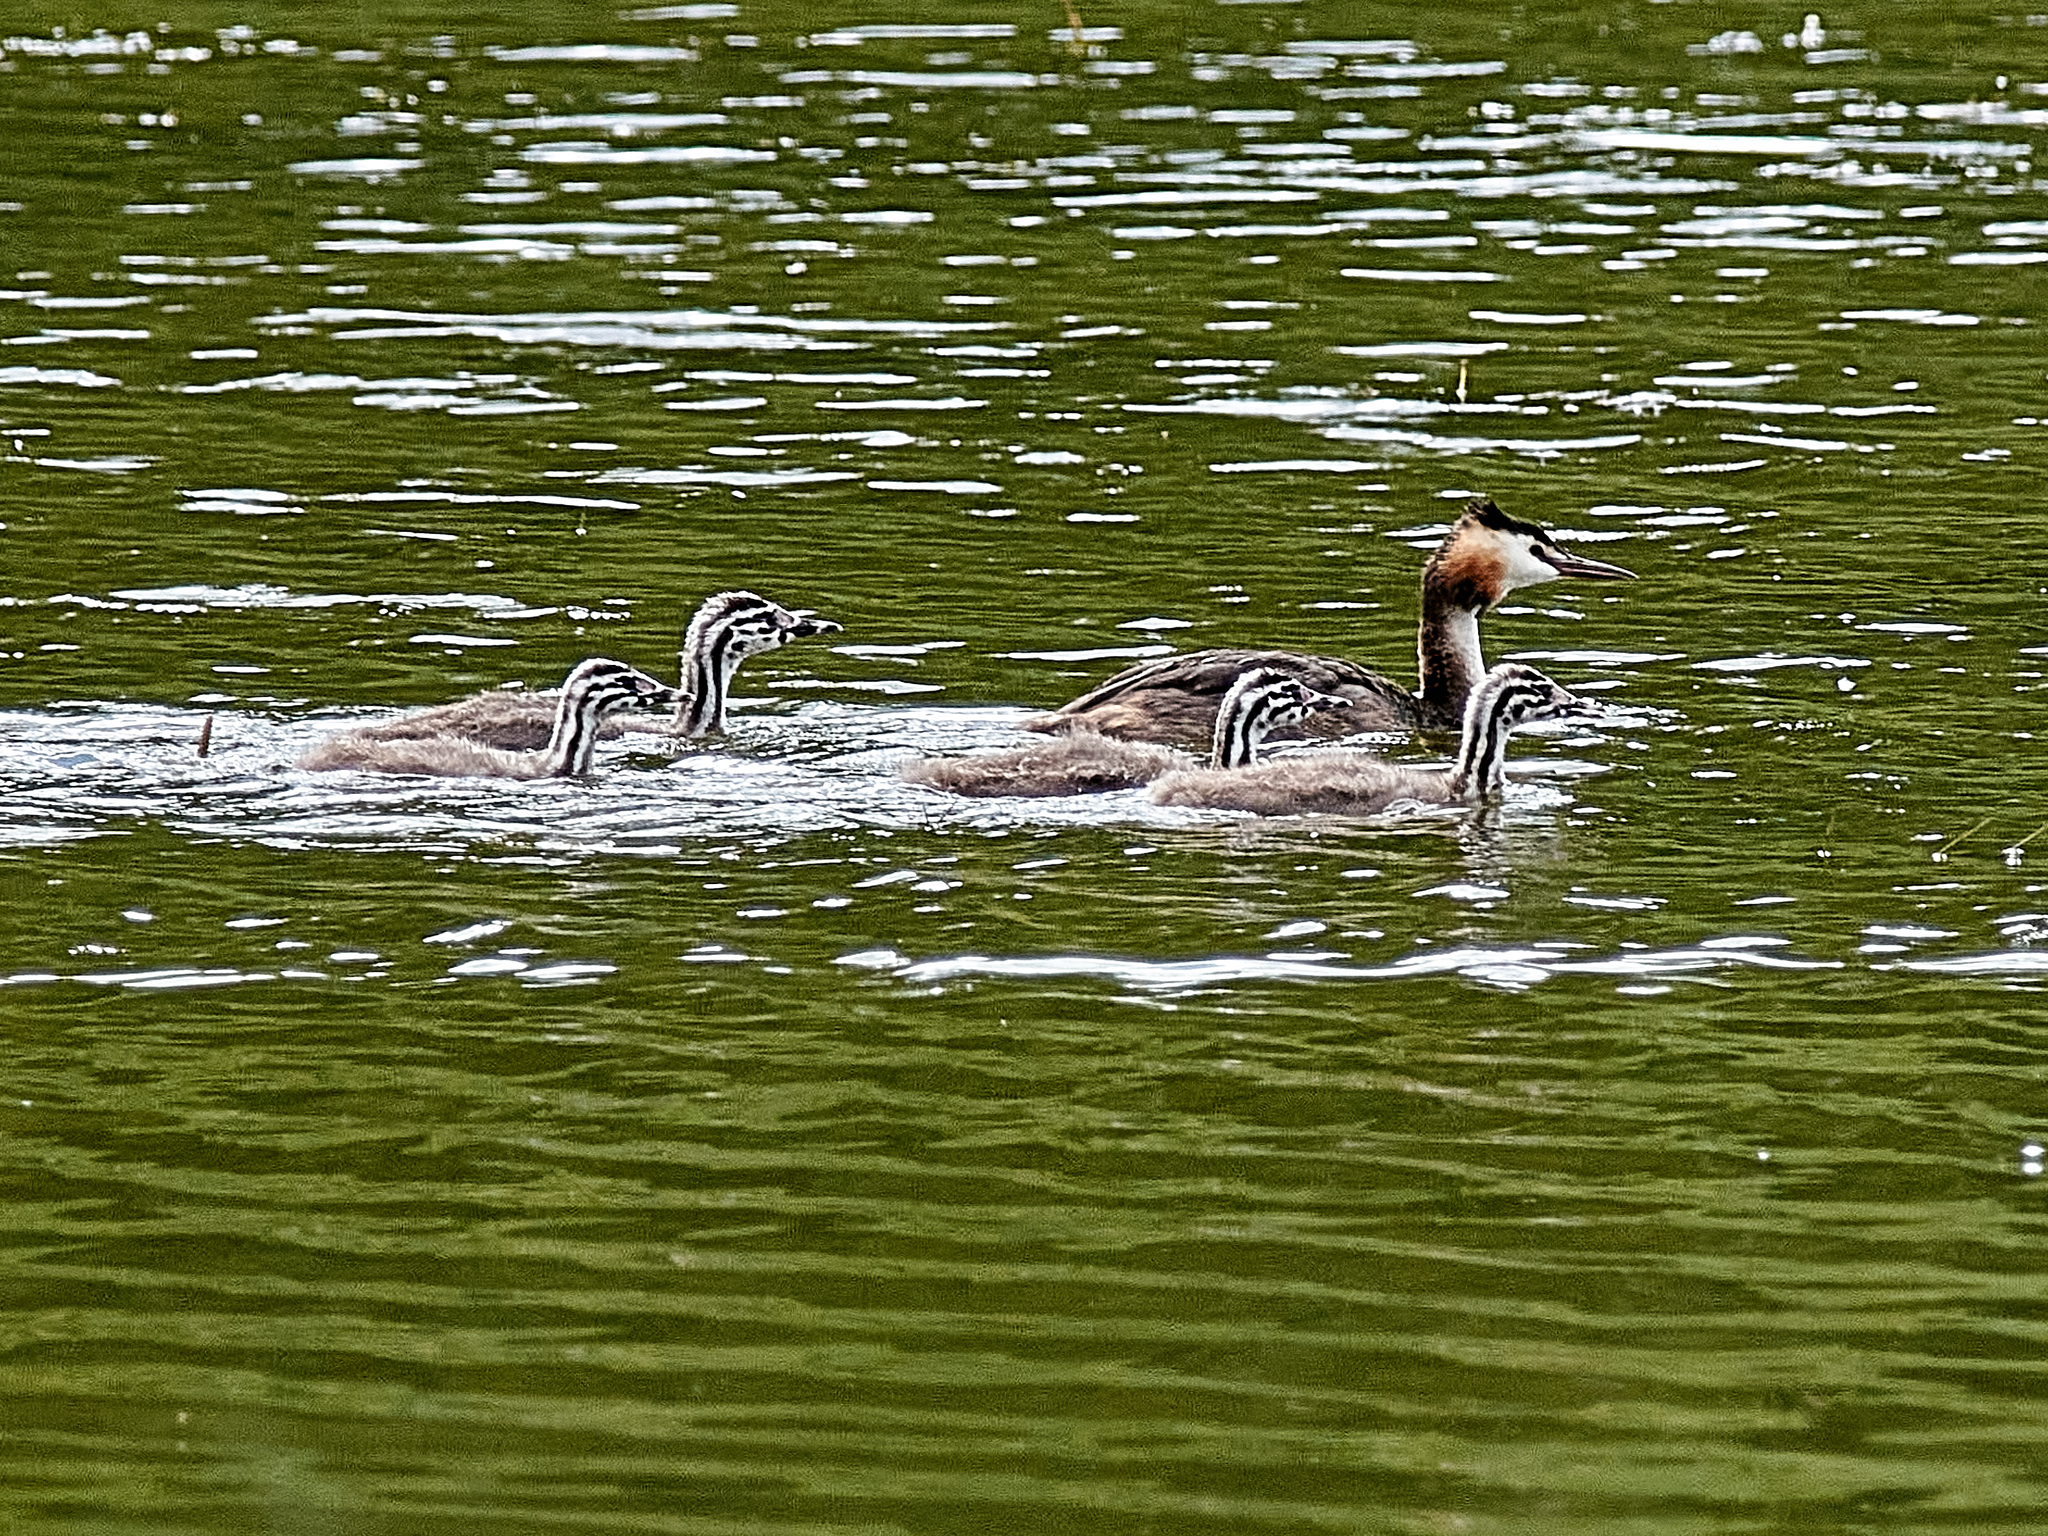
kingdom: Animalia
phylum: Chordata
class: Aves
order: Podicipediformes
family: Podicipedidae
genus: Podiceps
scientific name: Podiceps cristatus
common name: Great crested grebe
